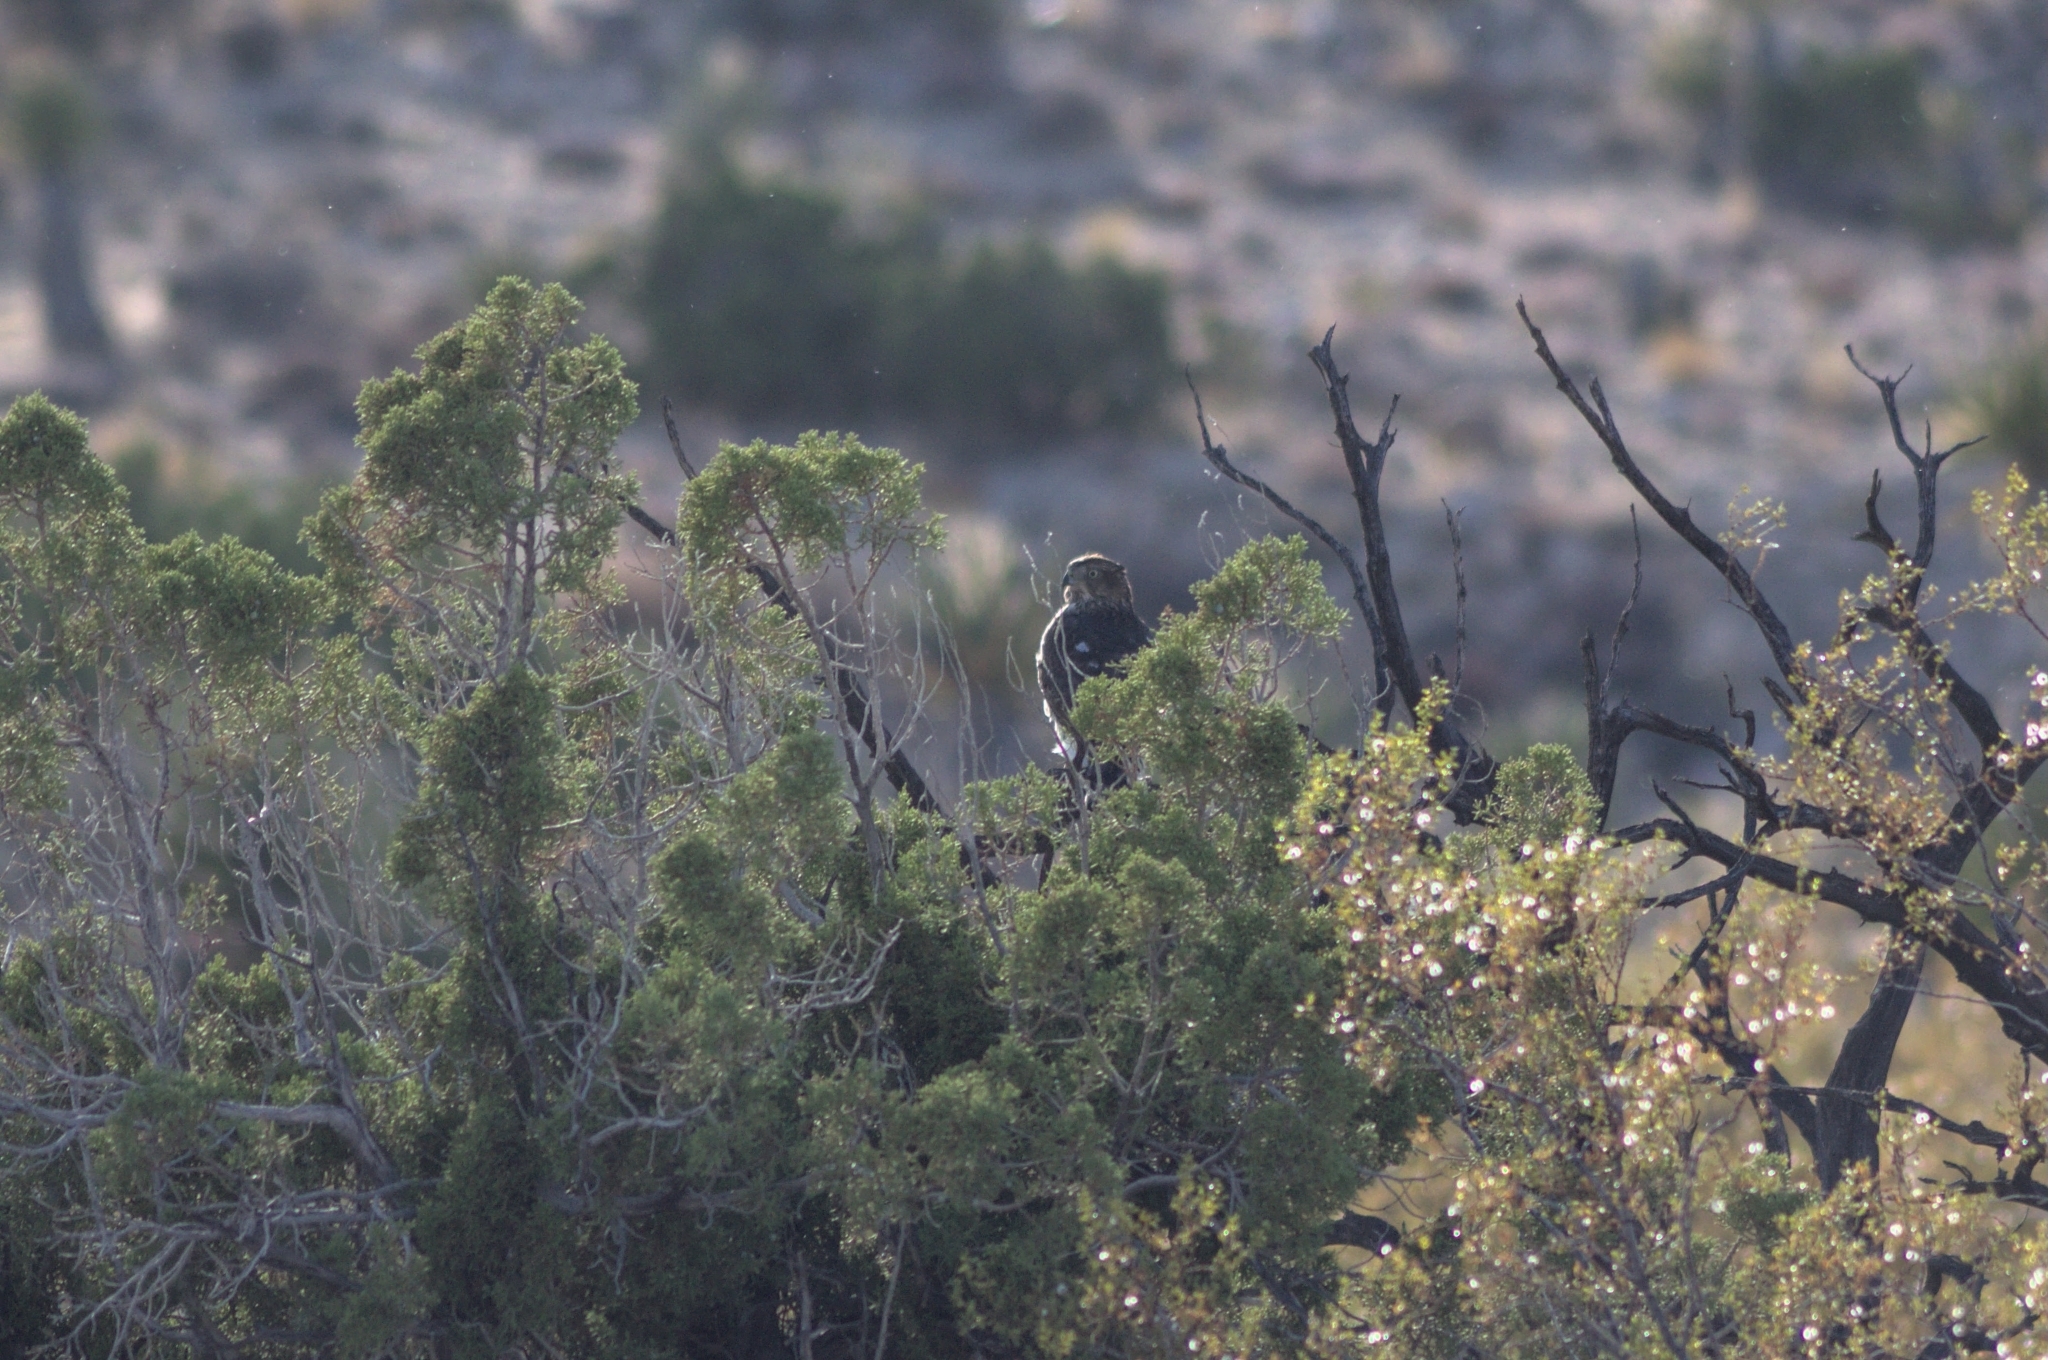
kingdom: Animalia
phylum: Chordata
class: Aves
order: Accipitriformes
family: Accipitridae
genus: Accipiter
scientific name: Accipiter cooperii
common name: Cooper's hawk
